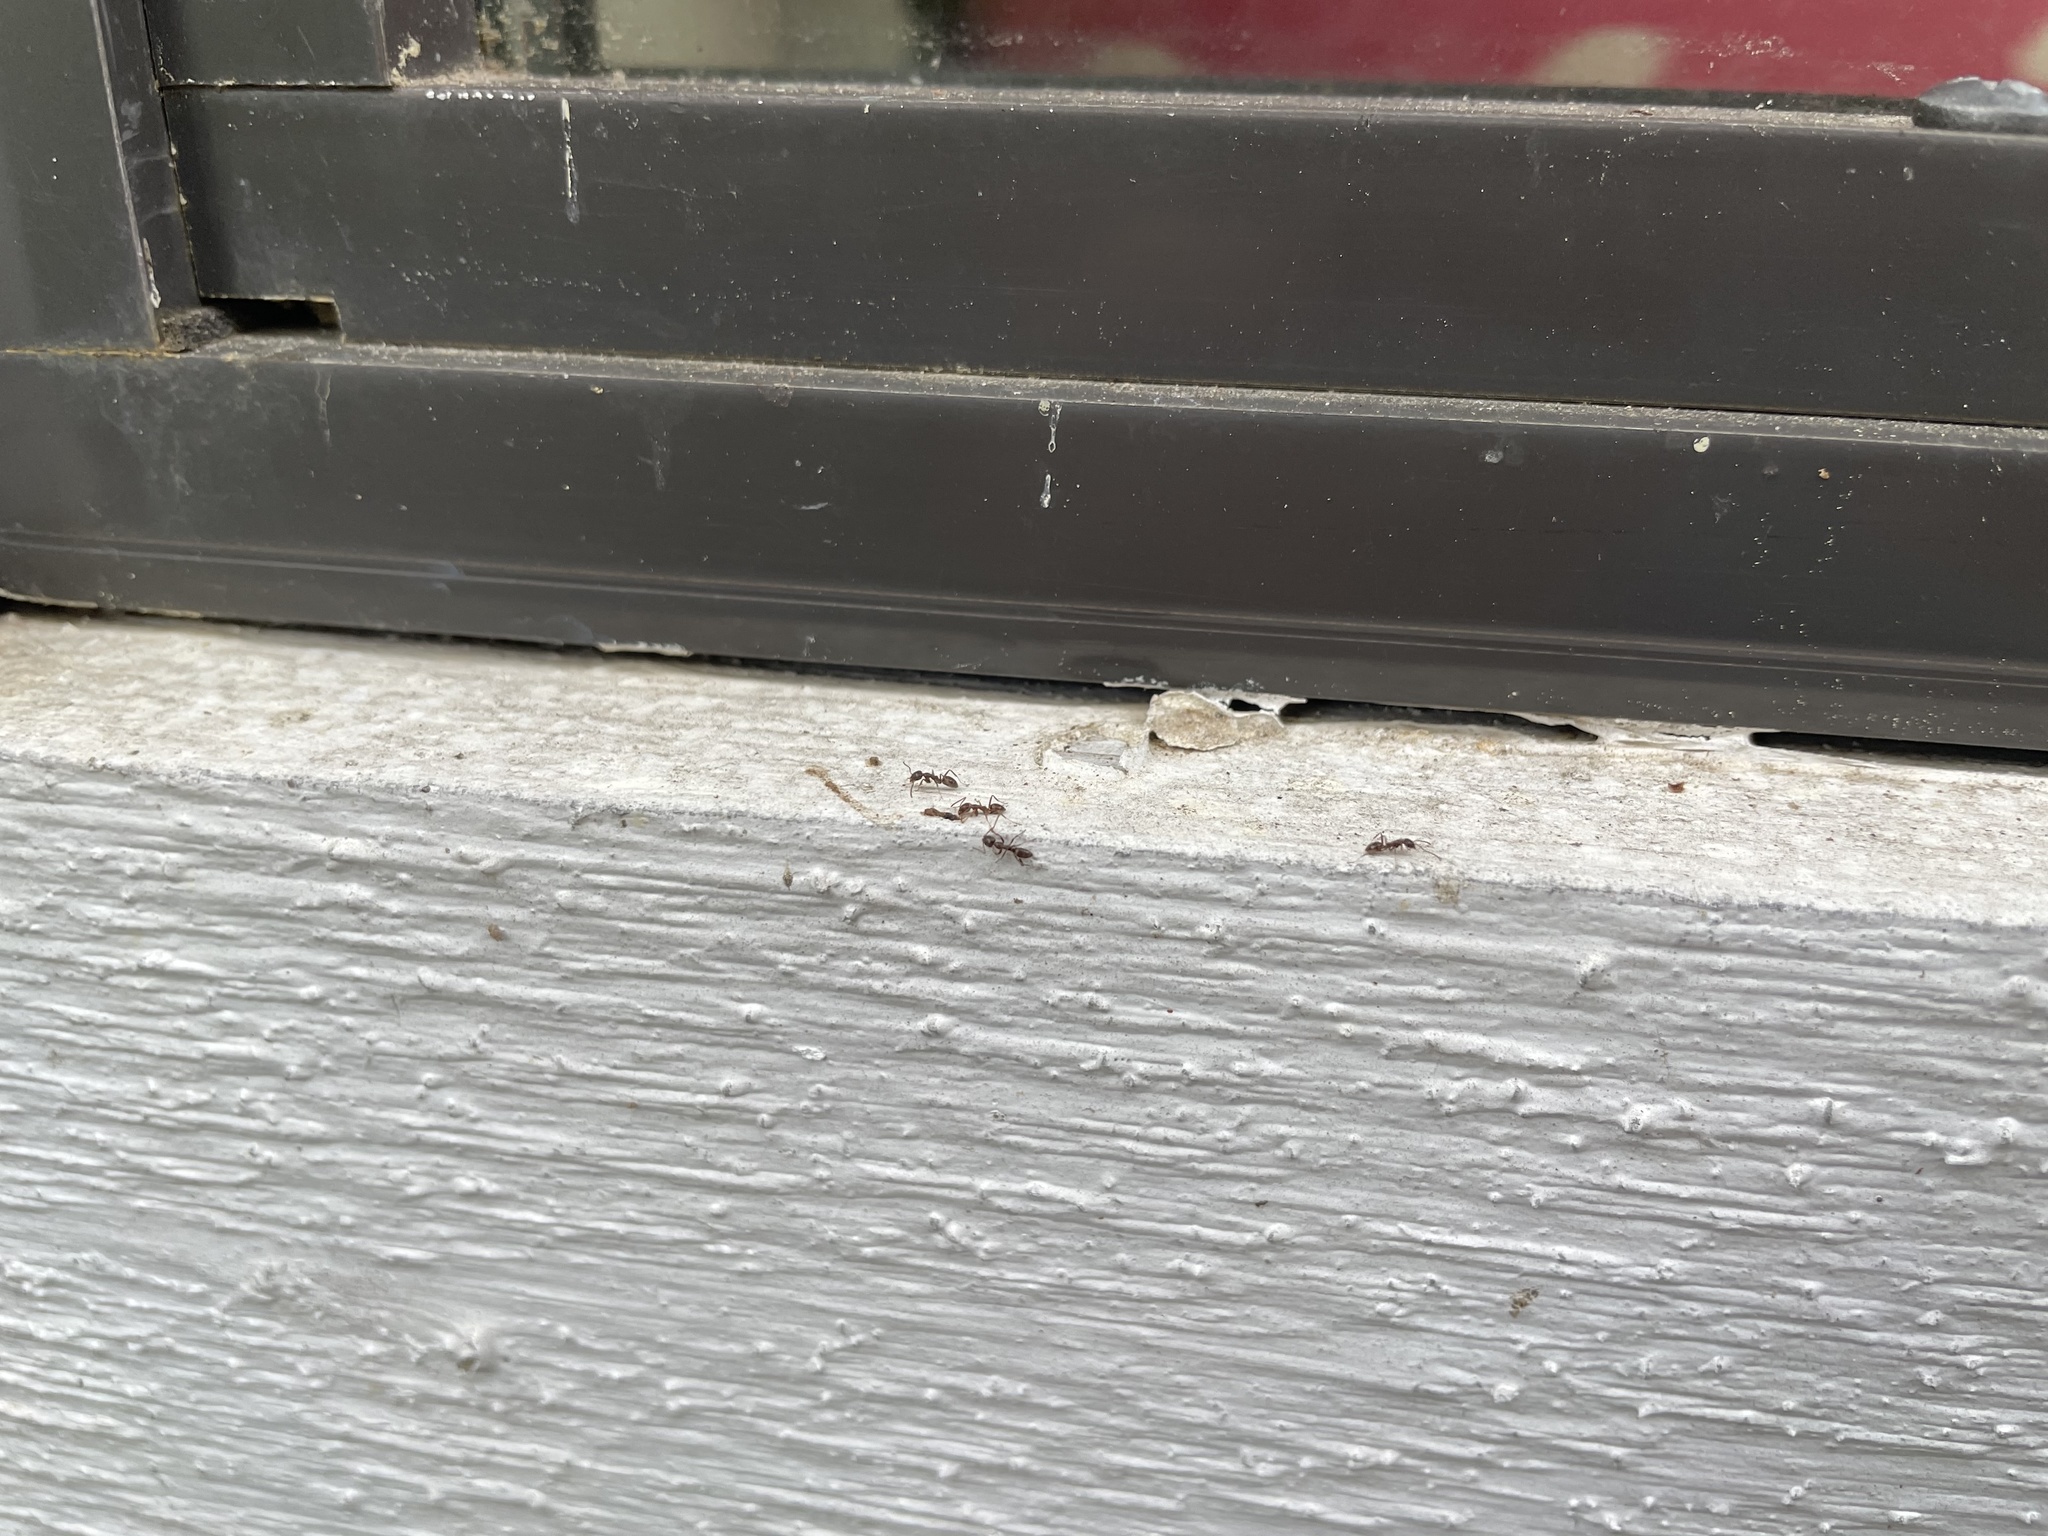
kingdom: Animalia
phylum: Arthropoda
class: Insecta
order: Hymenoptera
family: Formicidae
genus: Linepithema
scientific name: Linepithema humile
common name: Argentine ant
